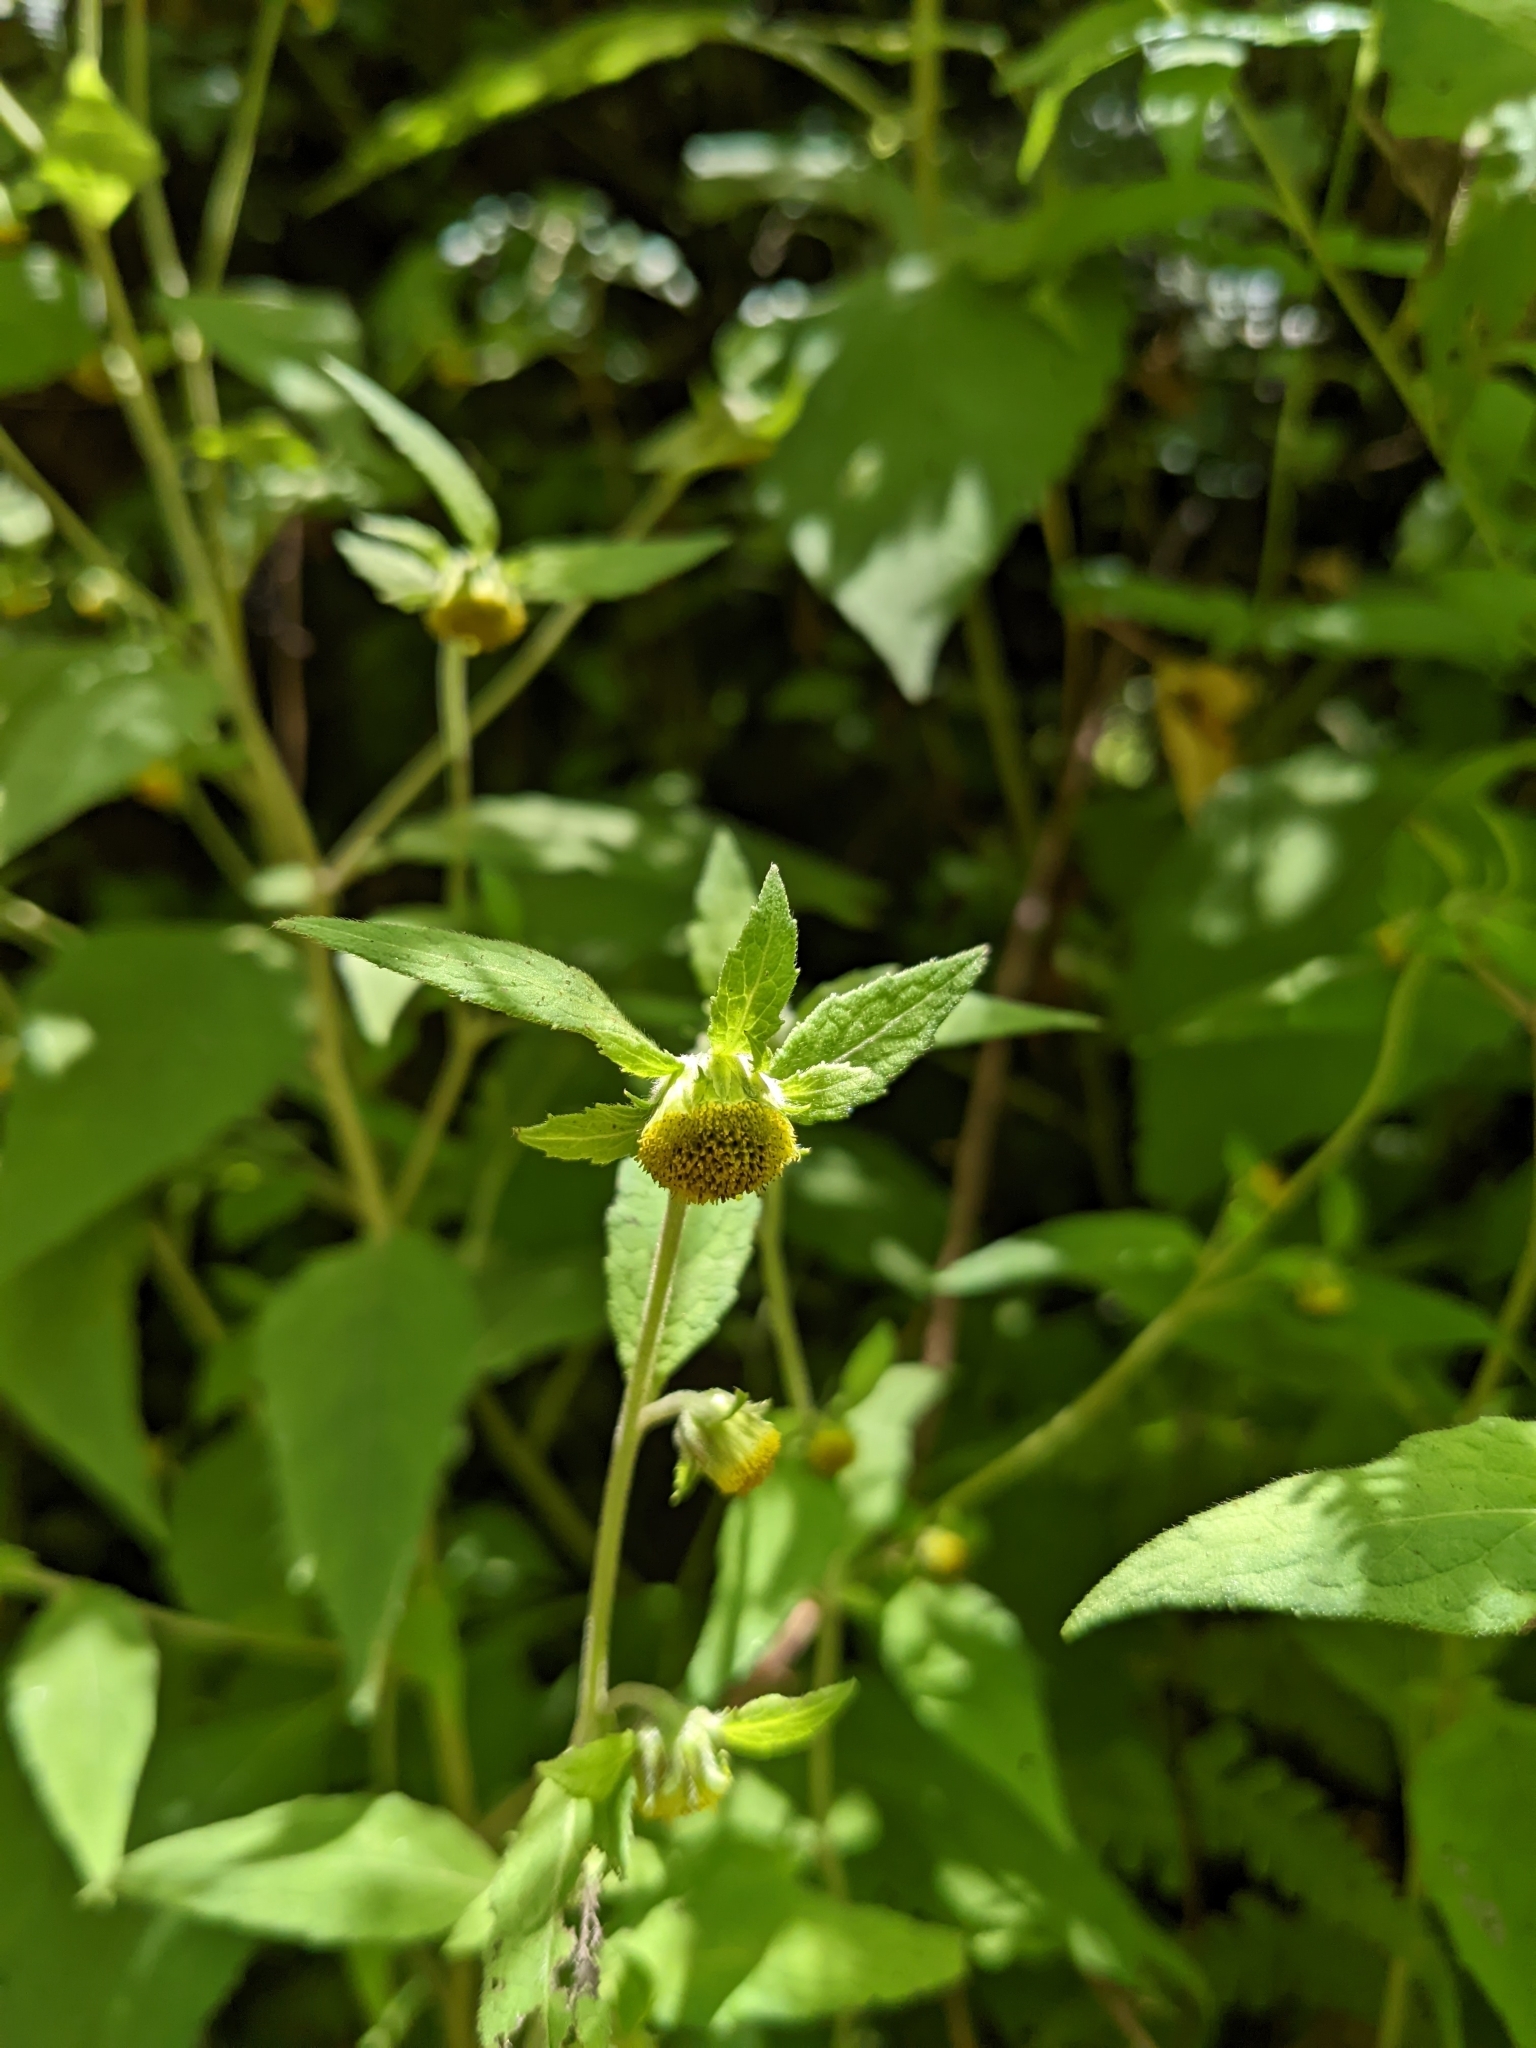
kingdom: Plantae
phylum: Tracheophyta
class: Magnoliopsida
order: Asterales
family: Asteraceae
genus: Carpesium
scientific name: Carpesium nepalense
